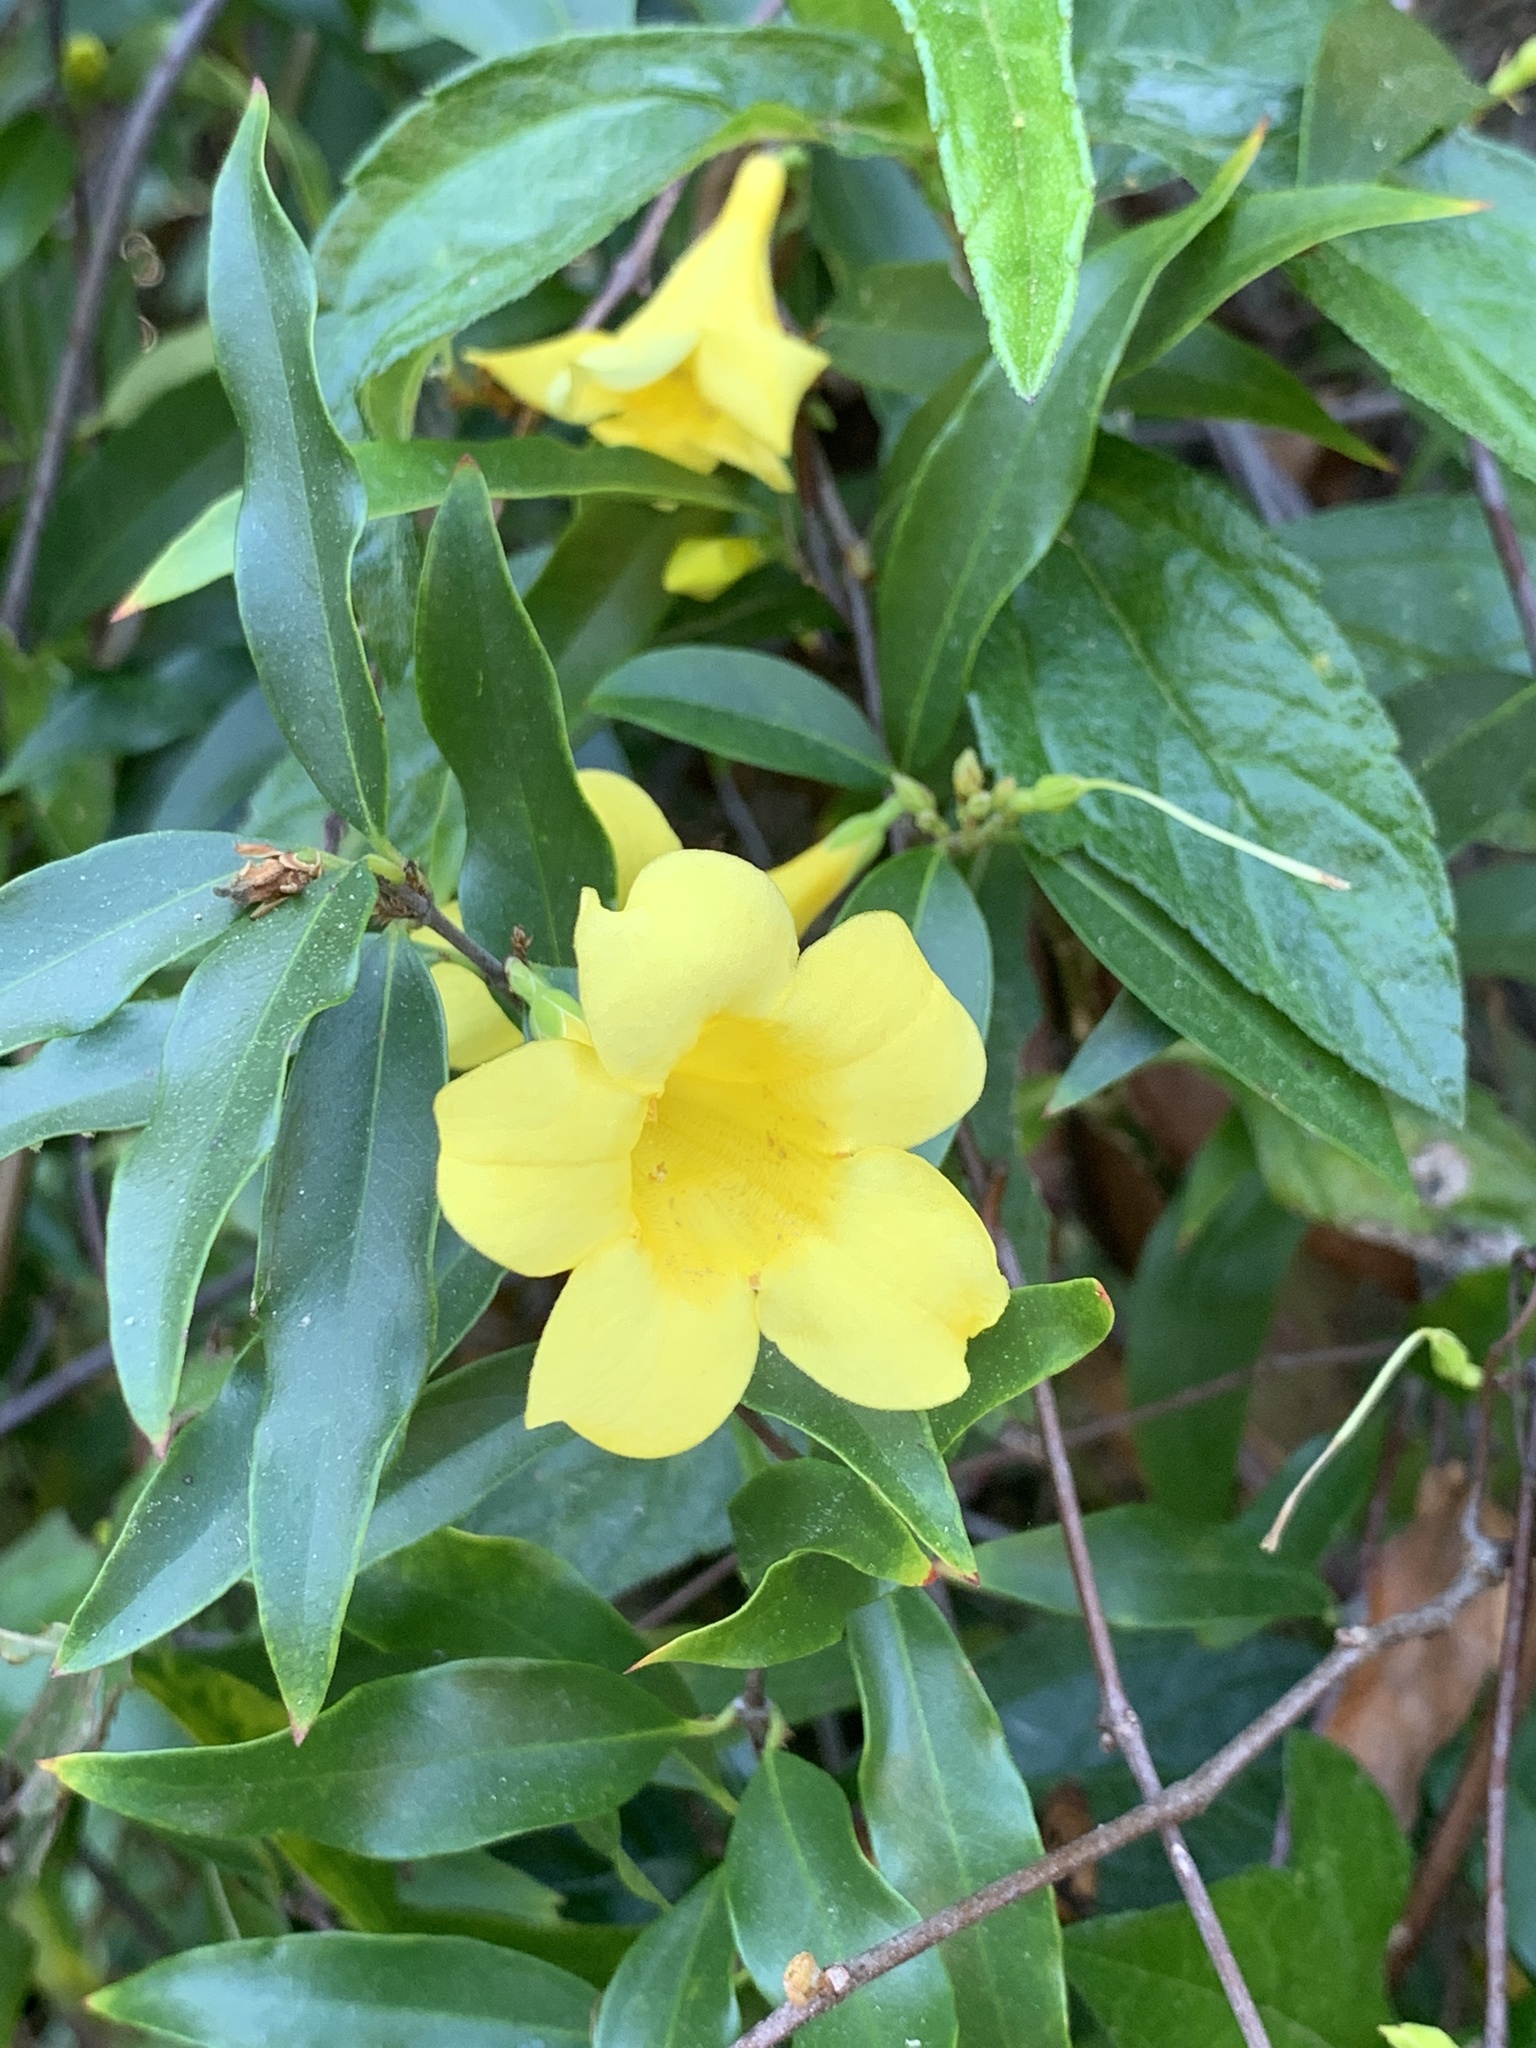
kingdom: Plantae
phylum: Tracheophyta
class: Magnoliopsida
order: Gentianales
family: Gelsemiaceae
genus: Gelsemium
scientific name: Gelsemium sempervirens
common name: Carolina-jasmine
